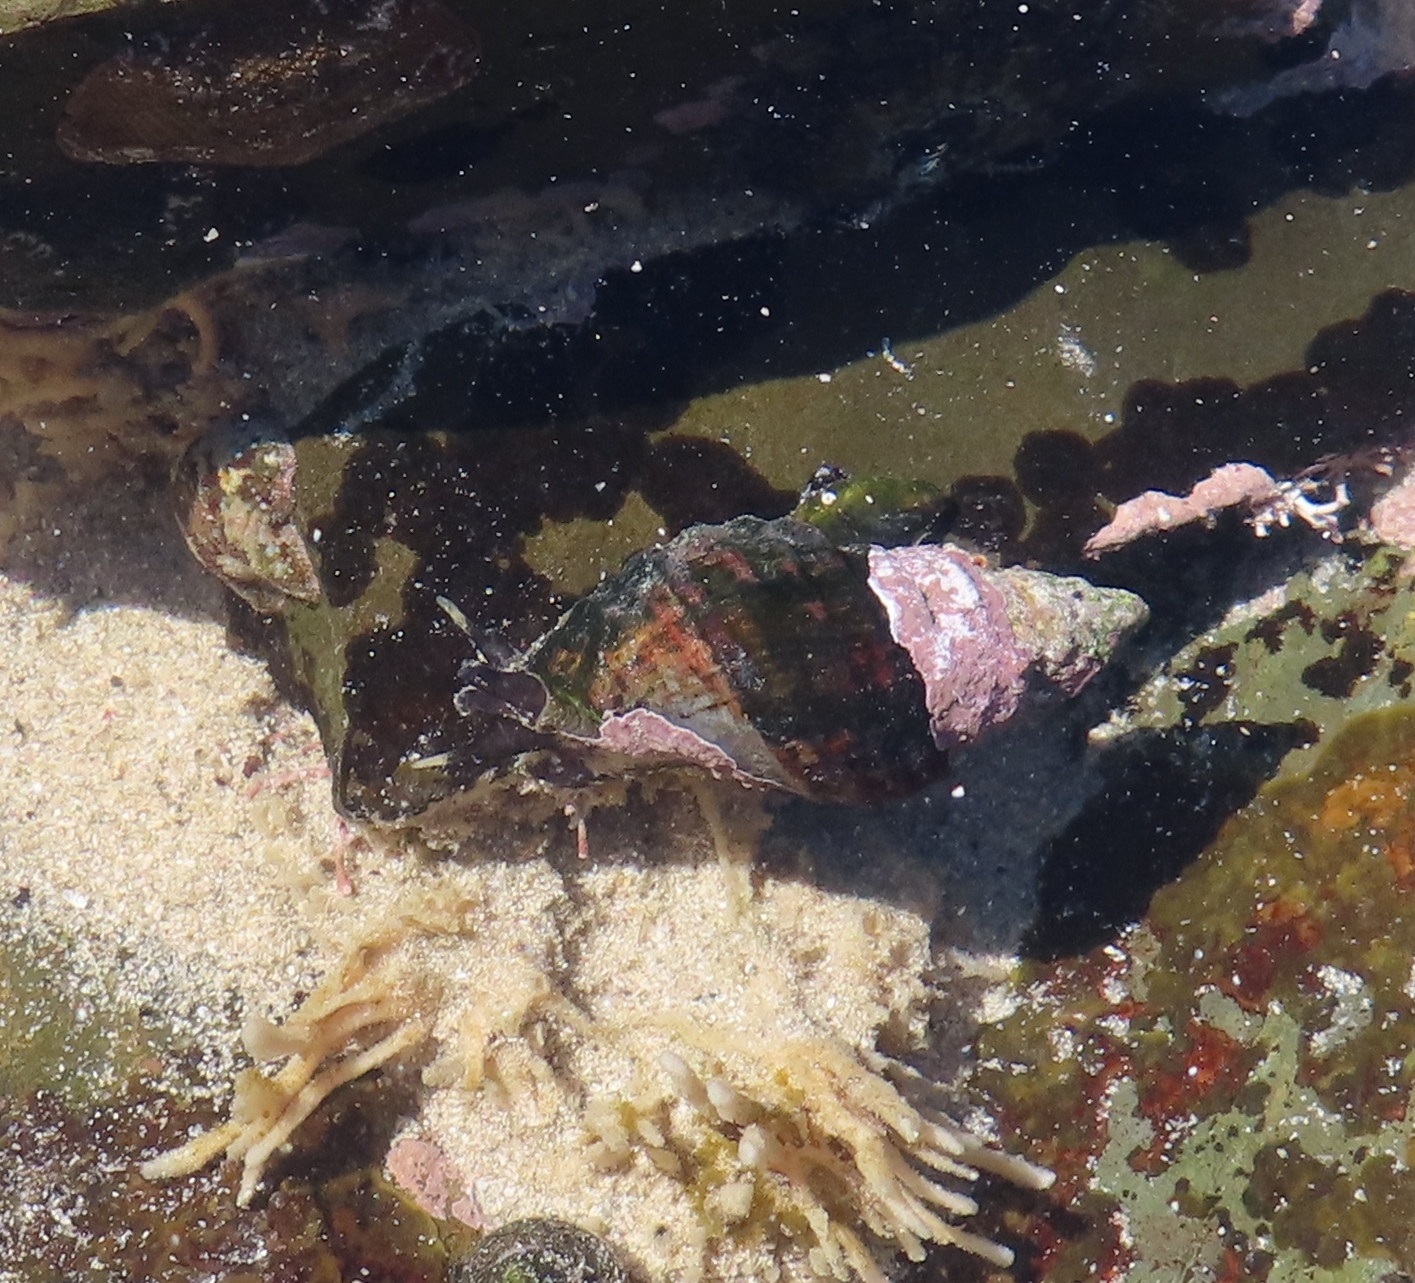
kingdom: Animalia
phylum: Mollusca
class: Gastropoda
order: Neogastropoda
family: Buccinidae
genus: Burnupena
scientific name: Burnupena cincta
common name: Ridged burnupena
